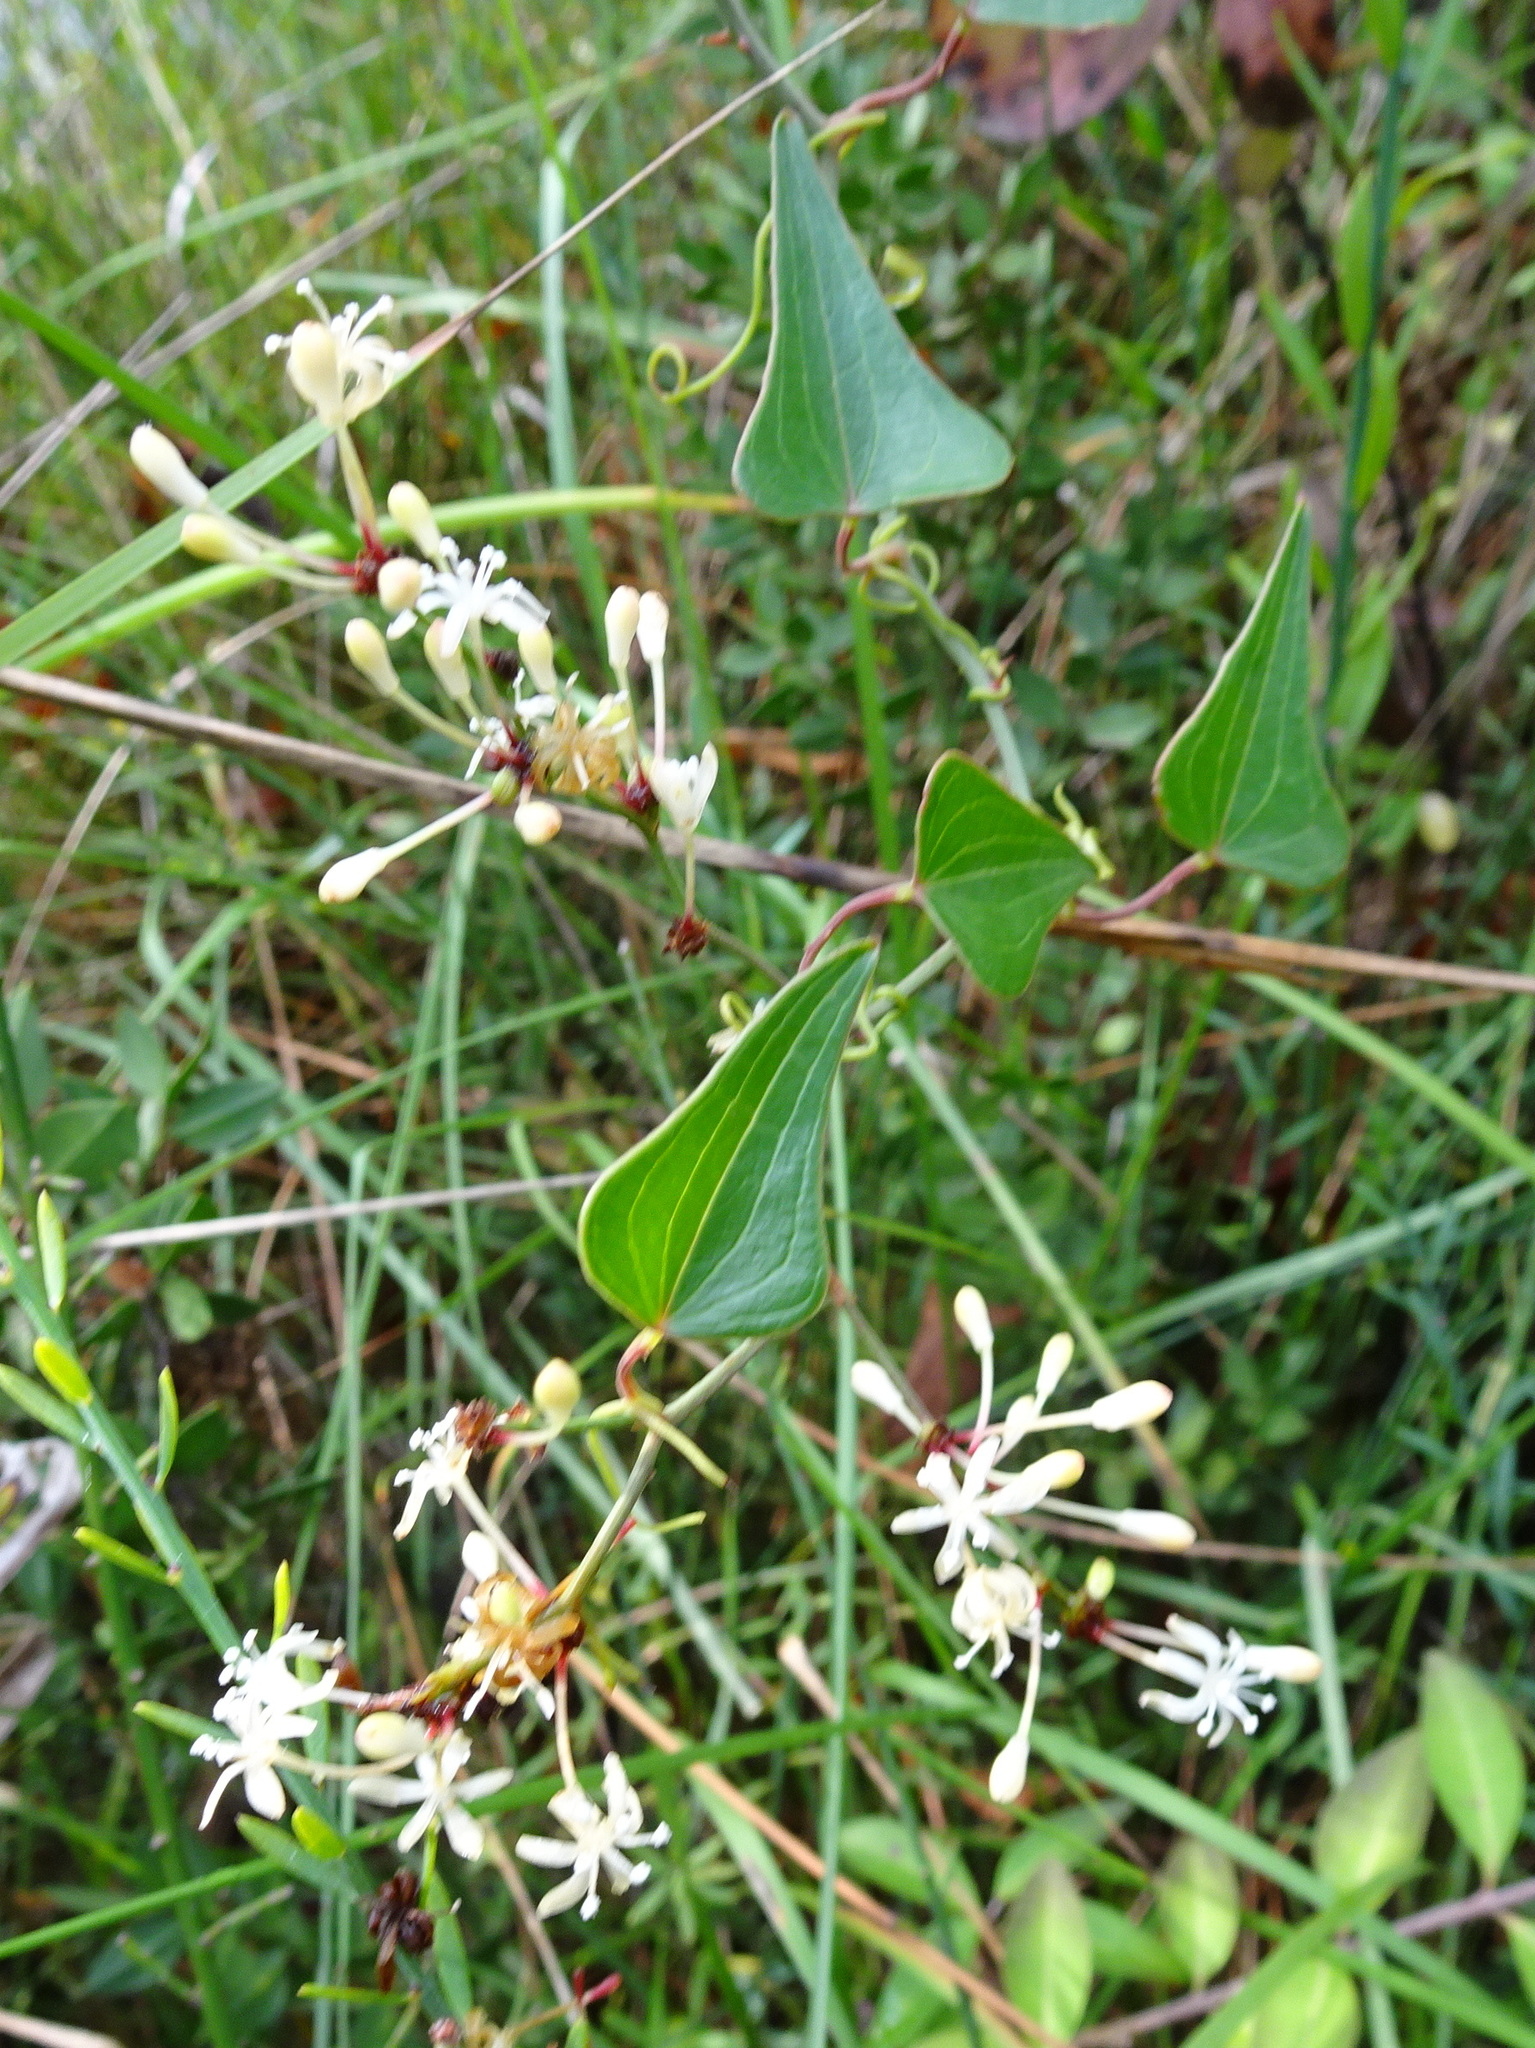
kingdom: Plantae
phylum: Tracheophyta
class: Liliopsida
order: Liliales
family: Smilacaceae
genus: Smilax
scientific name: Smilax aspera
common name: Common smilax
